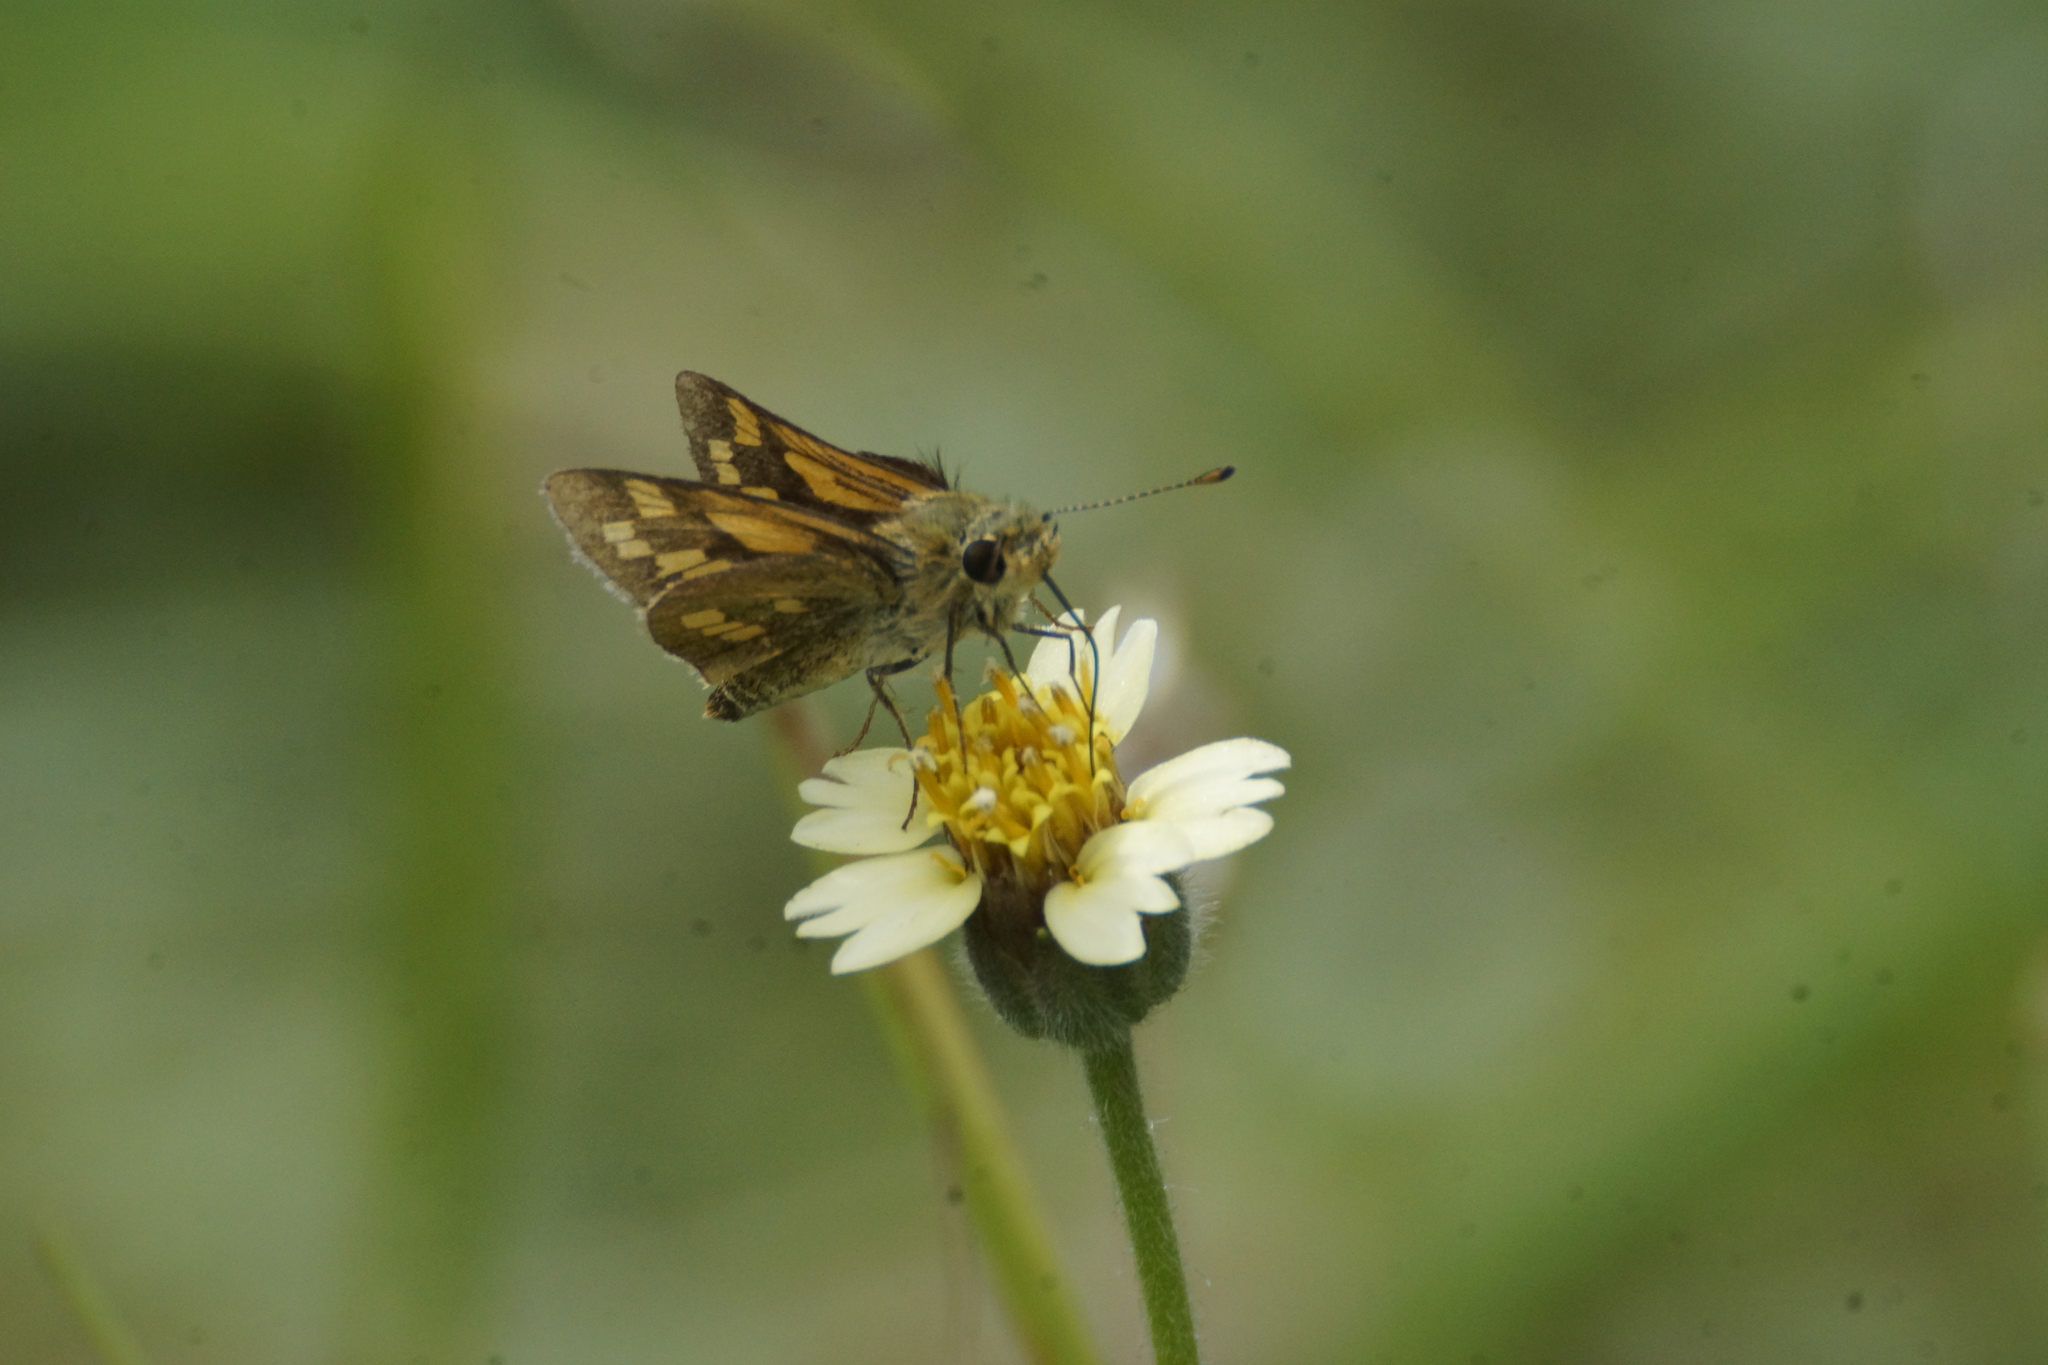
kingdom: Animalia
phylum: Arthropoda
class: Insecta
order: Lepidoptera
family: Hesperiidae
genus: Taractrocera
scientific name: Taractrocera ina
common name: Ina grass-dart
